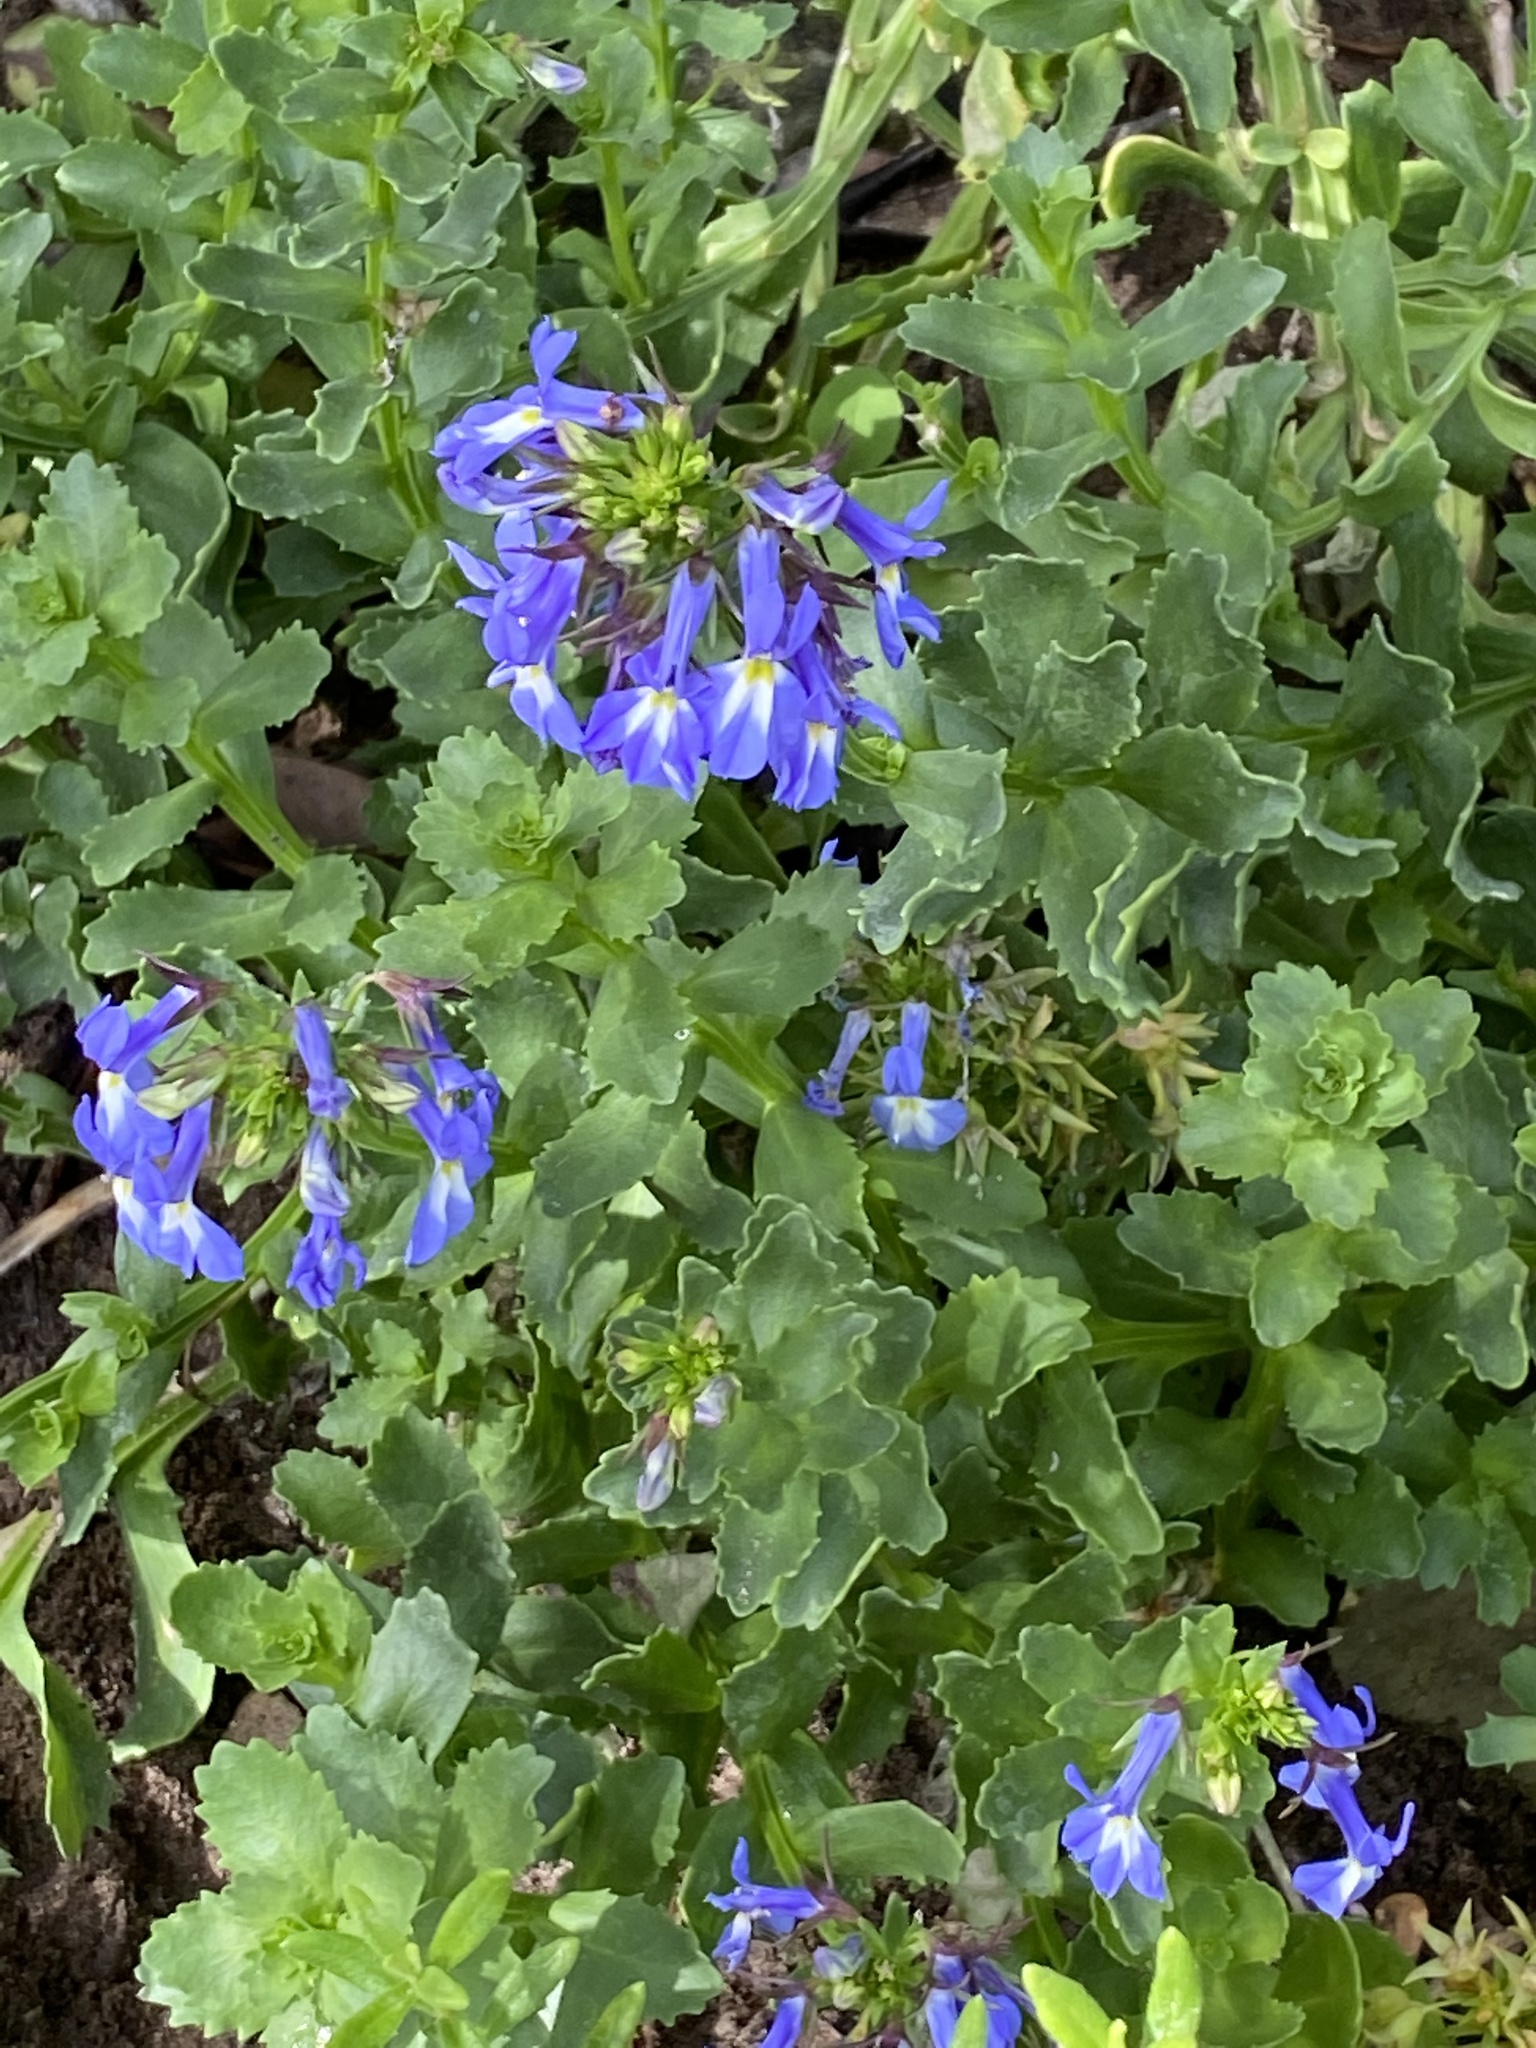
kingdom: Plantae
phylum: Tracheophyta
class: Magnoliopsida
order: Asterales
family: Campanulaceae
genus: Lobelia
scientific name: Lobelia valida
